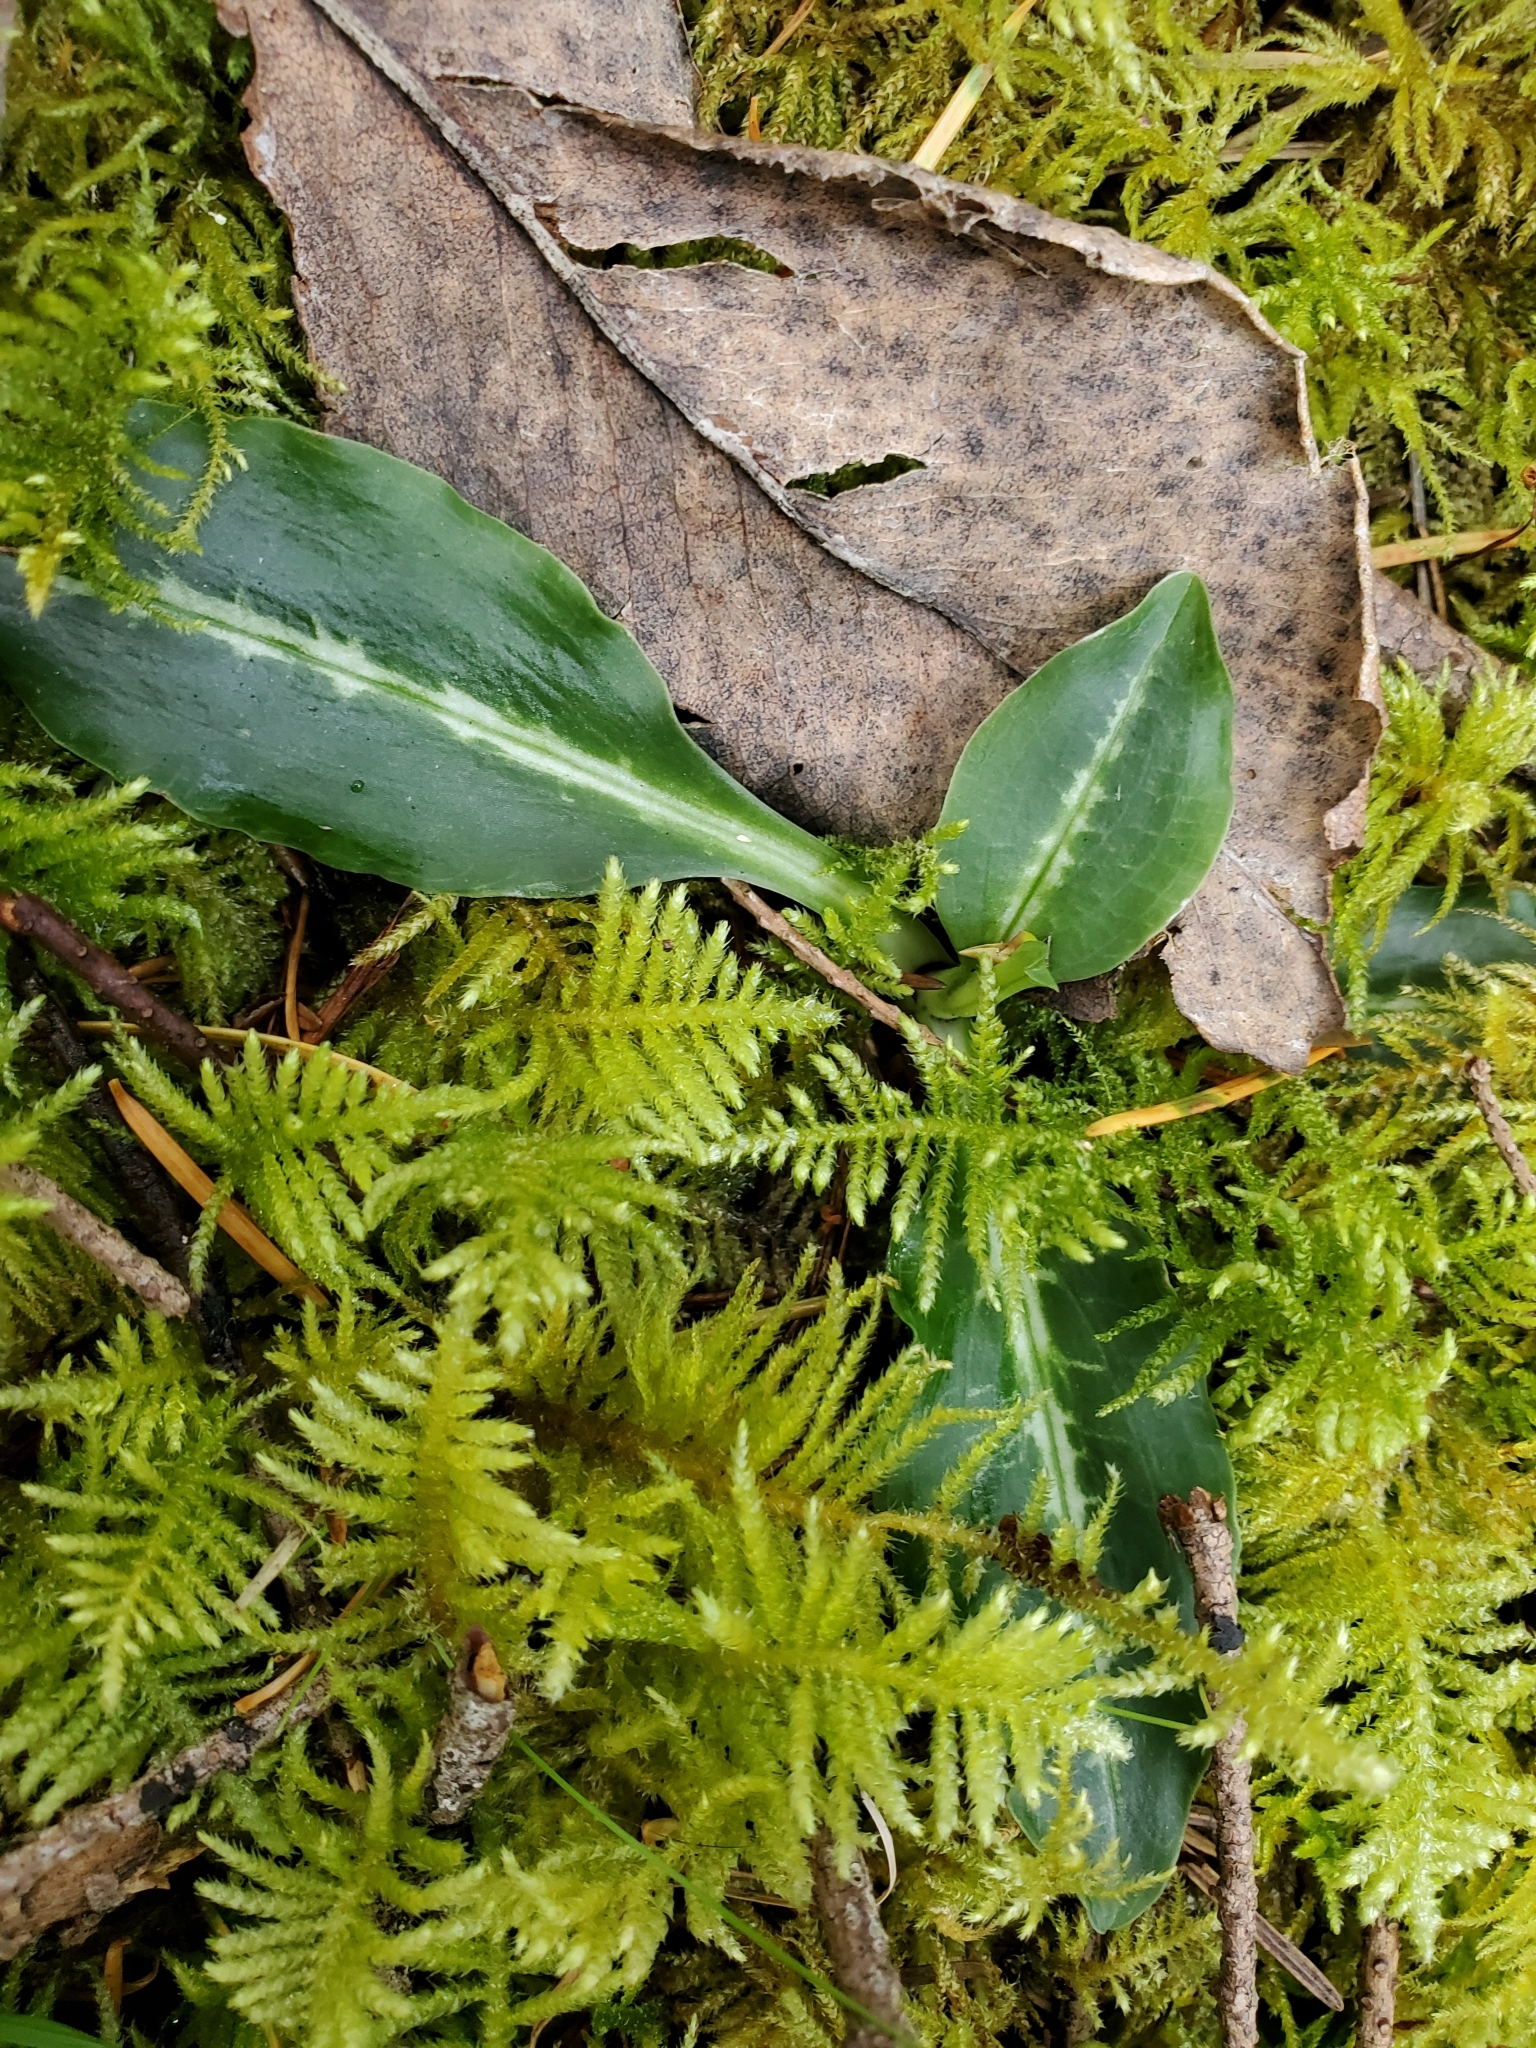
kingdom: Plantae
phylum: Tracheophyta
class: Liliopsida
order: Asparagales
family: Orchidaceae
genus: Goodyera
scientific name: Goodyera oblongifolia
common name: Giant rattlesnake-plantain
